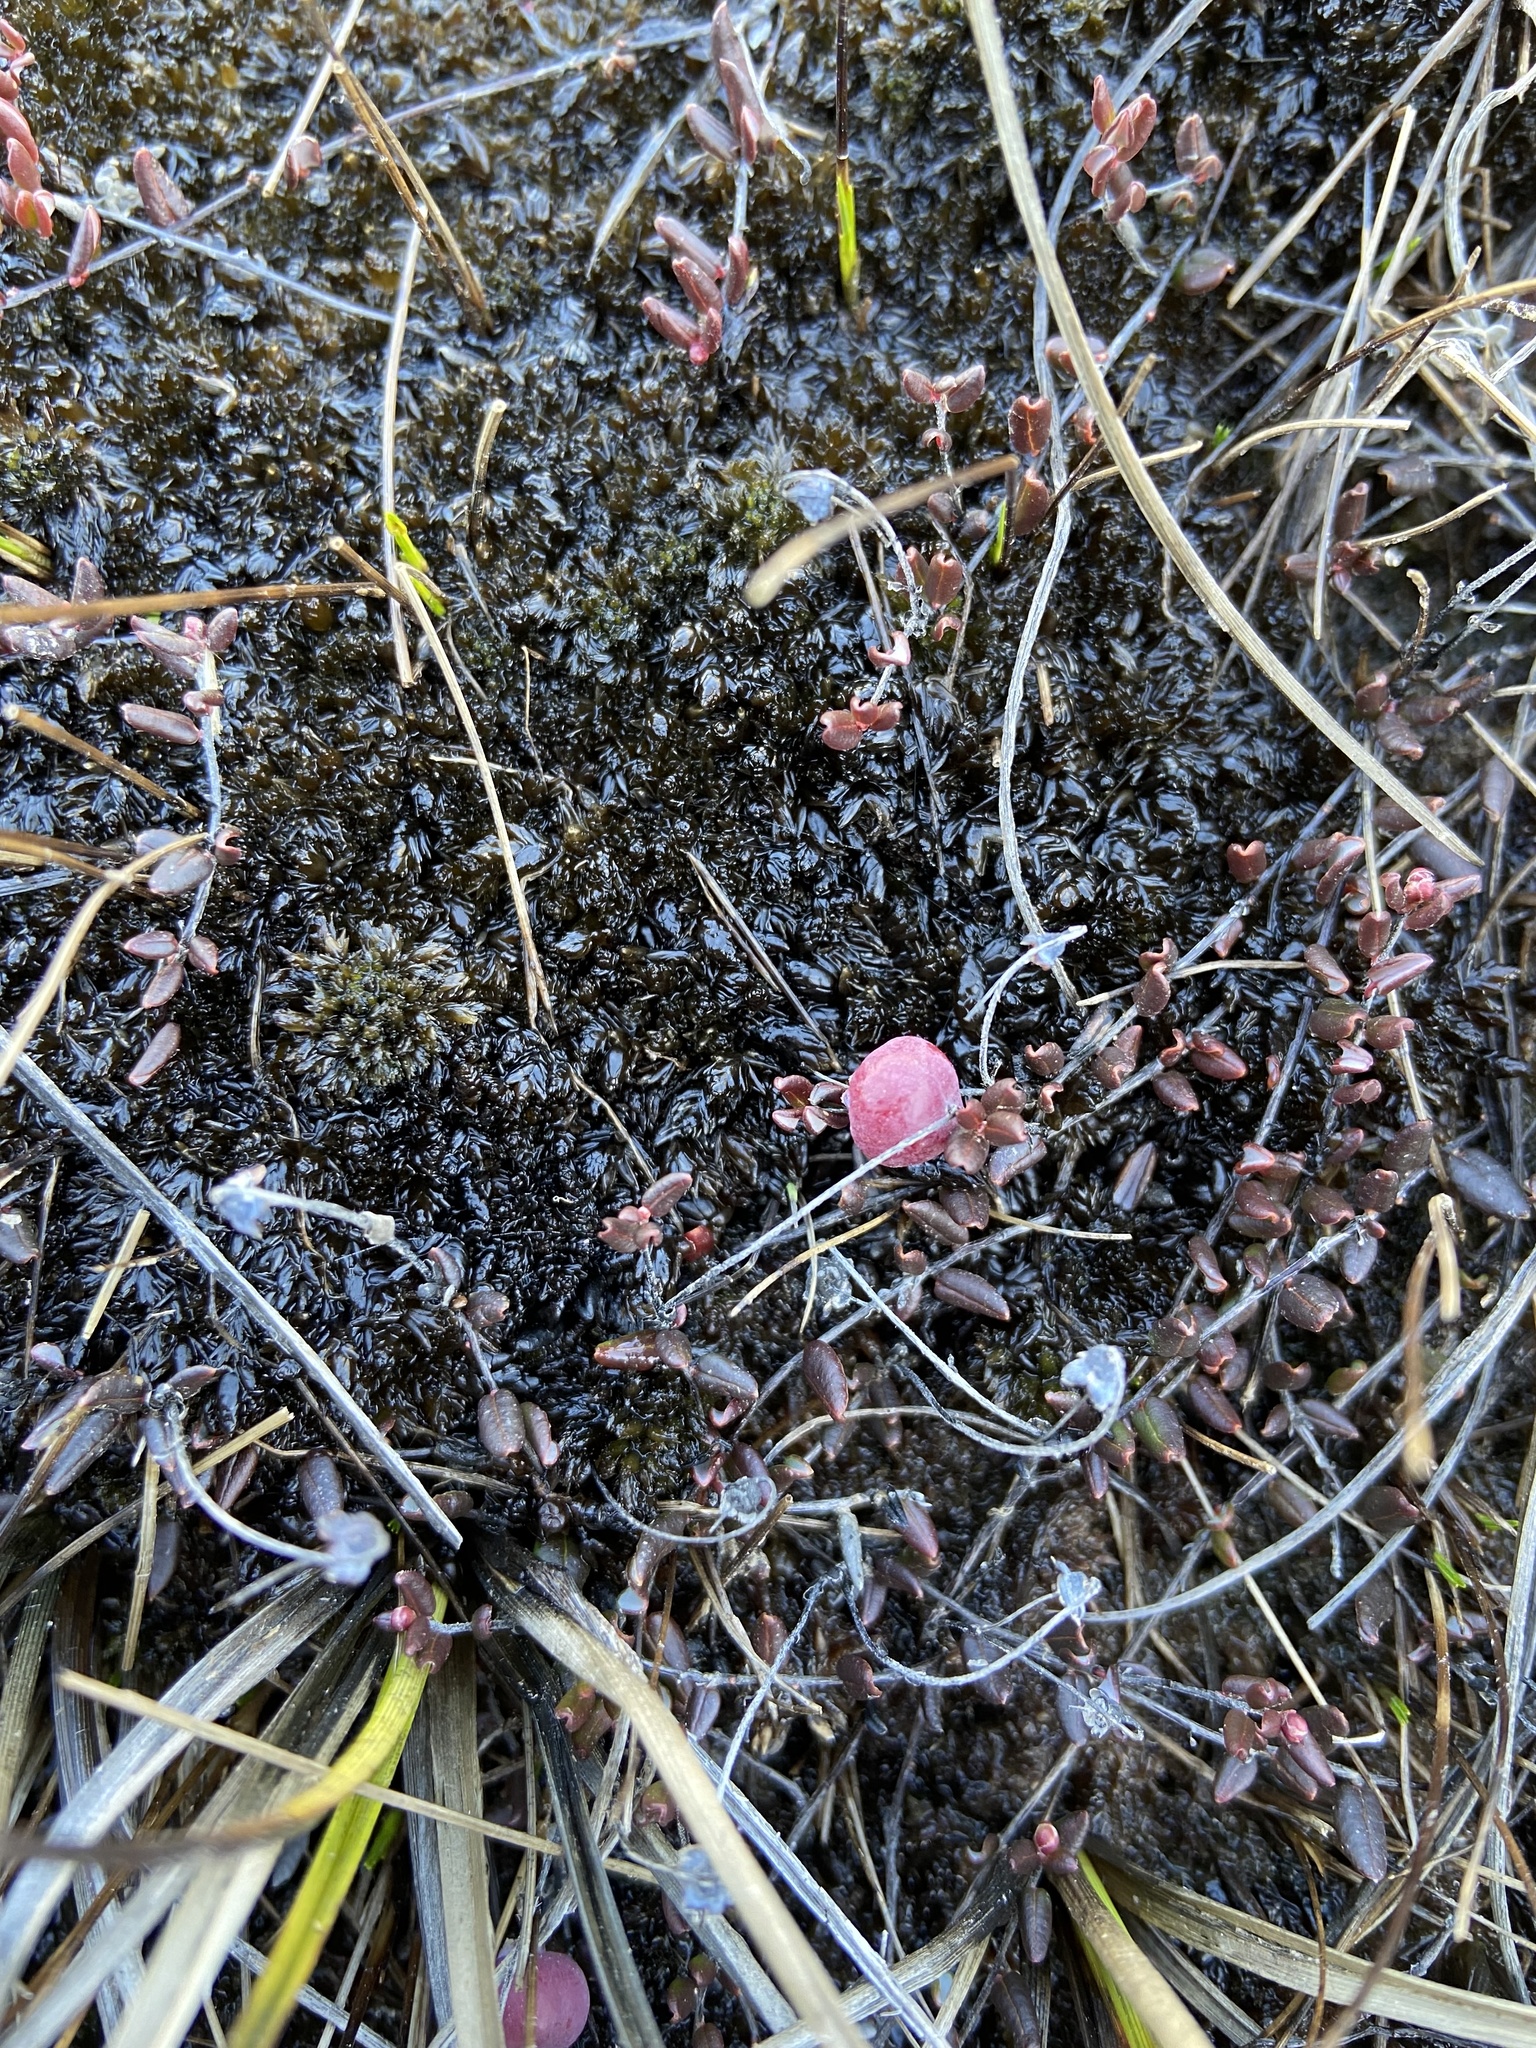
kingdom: Plantae
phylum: Tracheophyta
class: Magnoliopsida
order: Ericales
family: Ericaceae
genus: Vaccinium
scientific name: Vaccinium oxycoccos
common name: Cranberry
